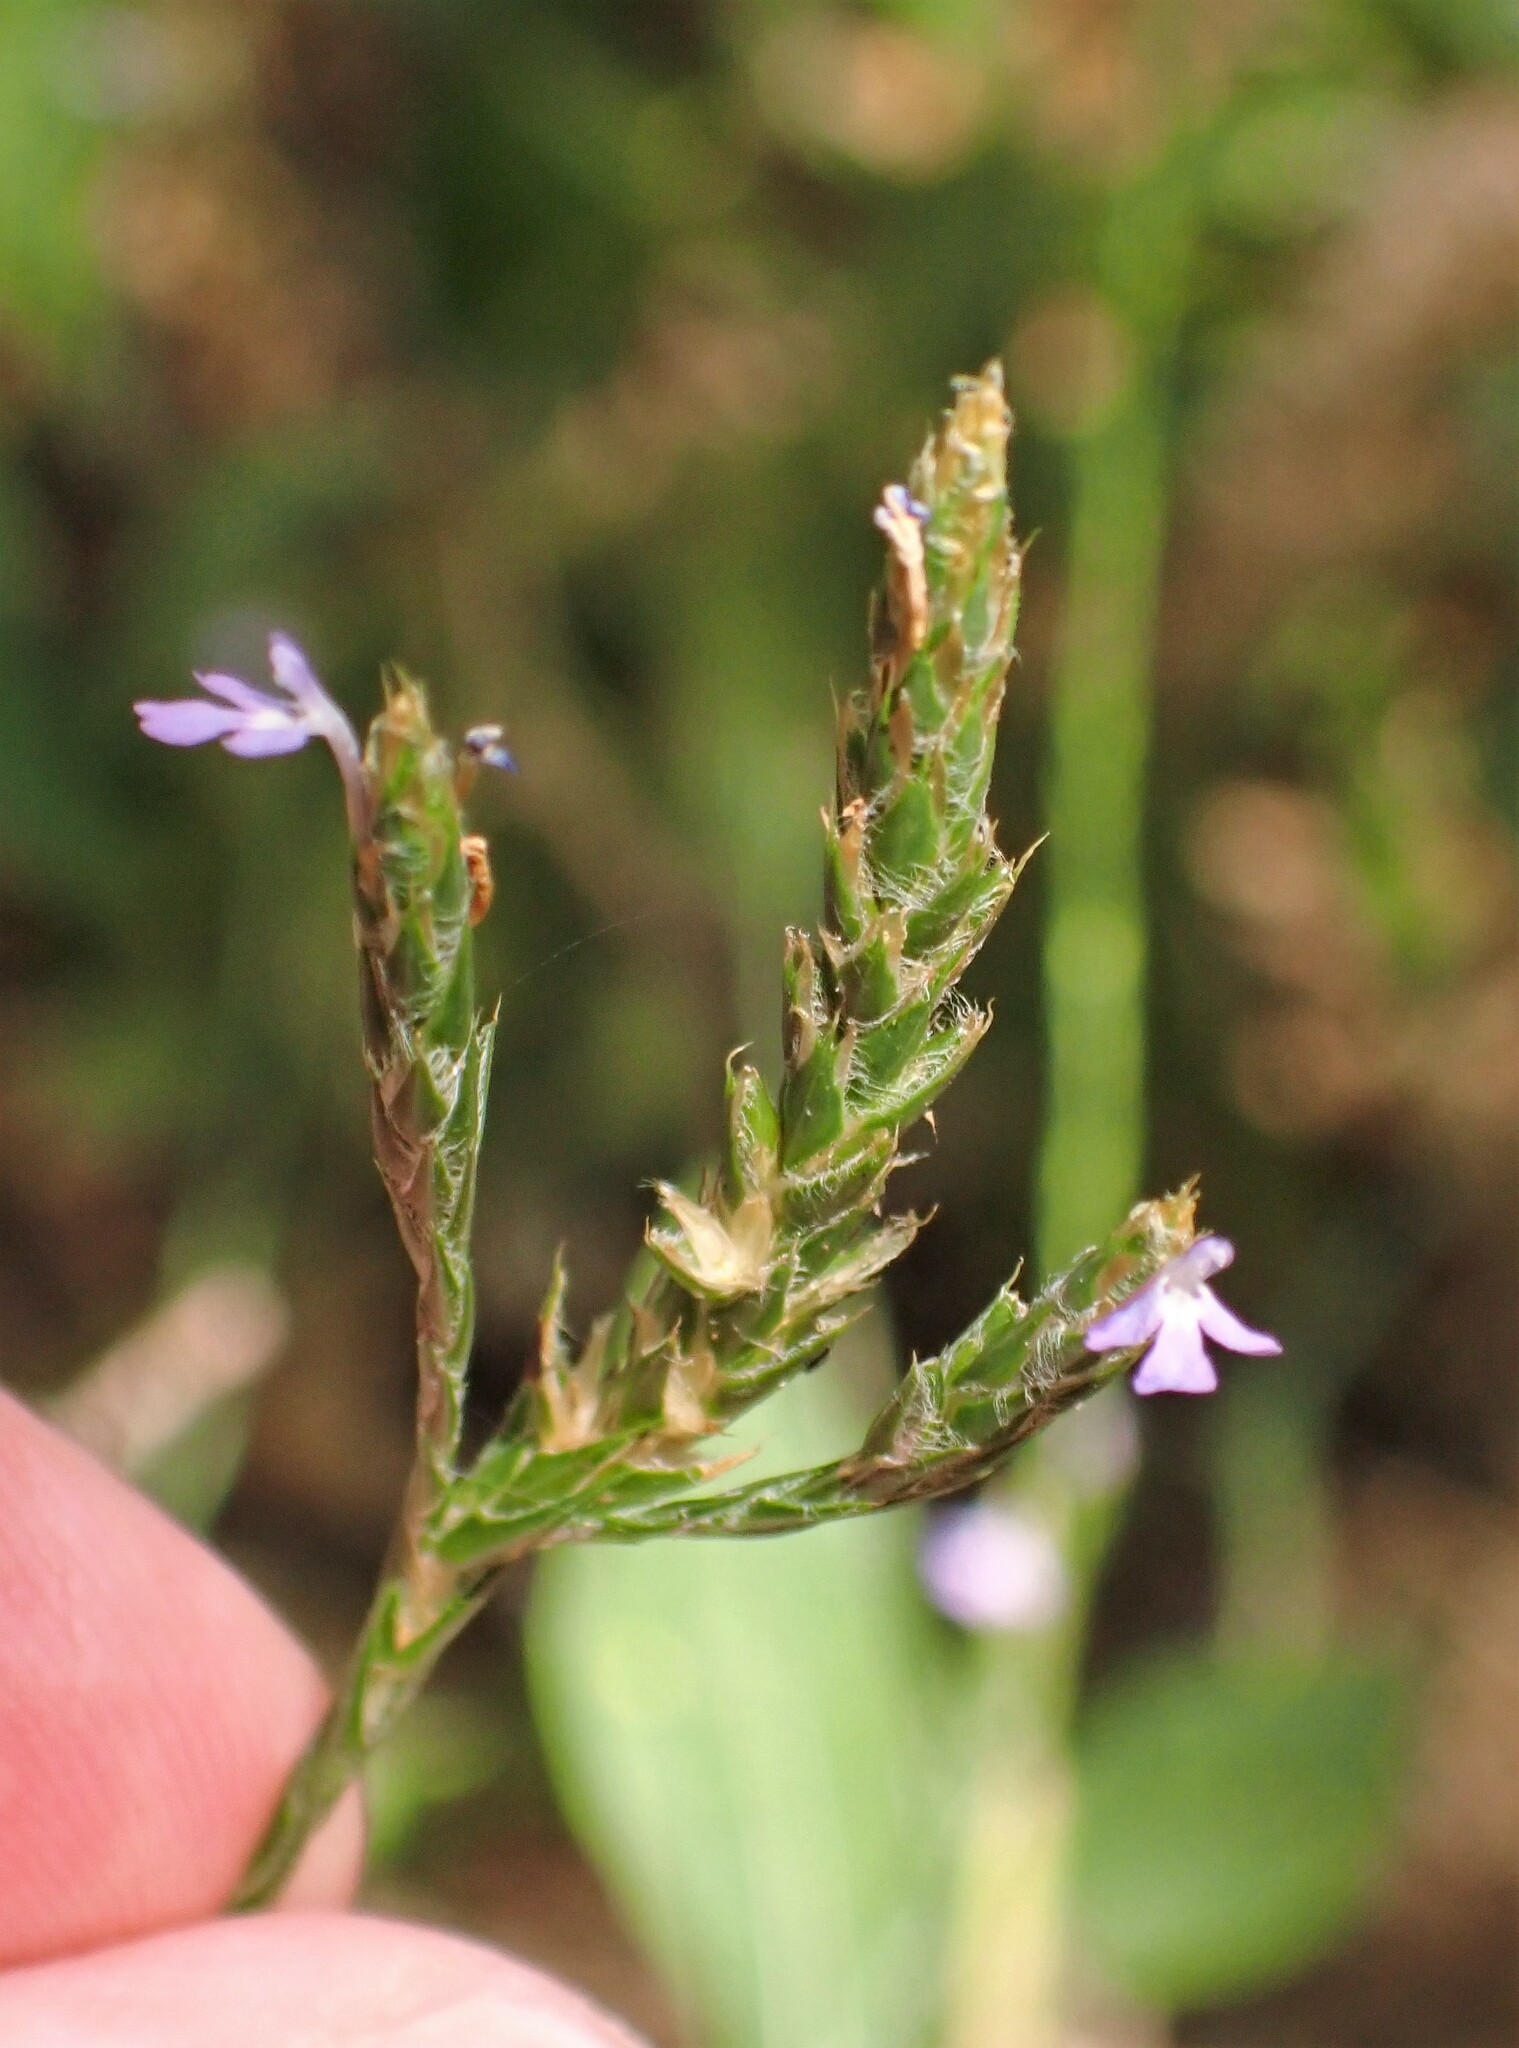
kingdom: Plantae
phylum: Tracheophyta
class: Magnoliopsida
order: Lamiales
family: Acanthaceae
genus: Elytraria
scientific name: Elytraria imbricata
